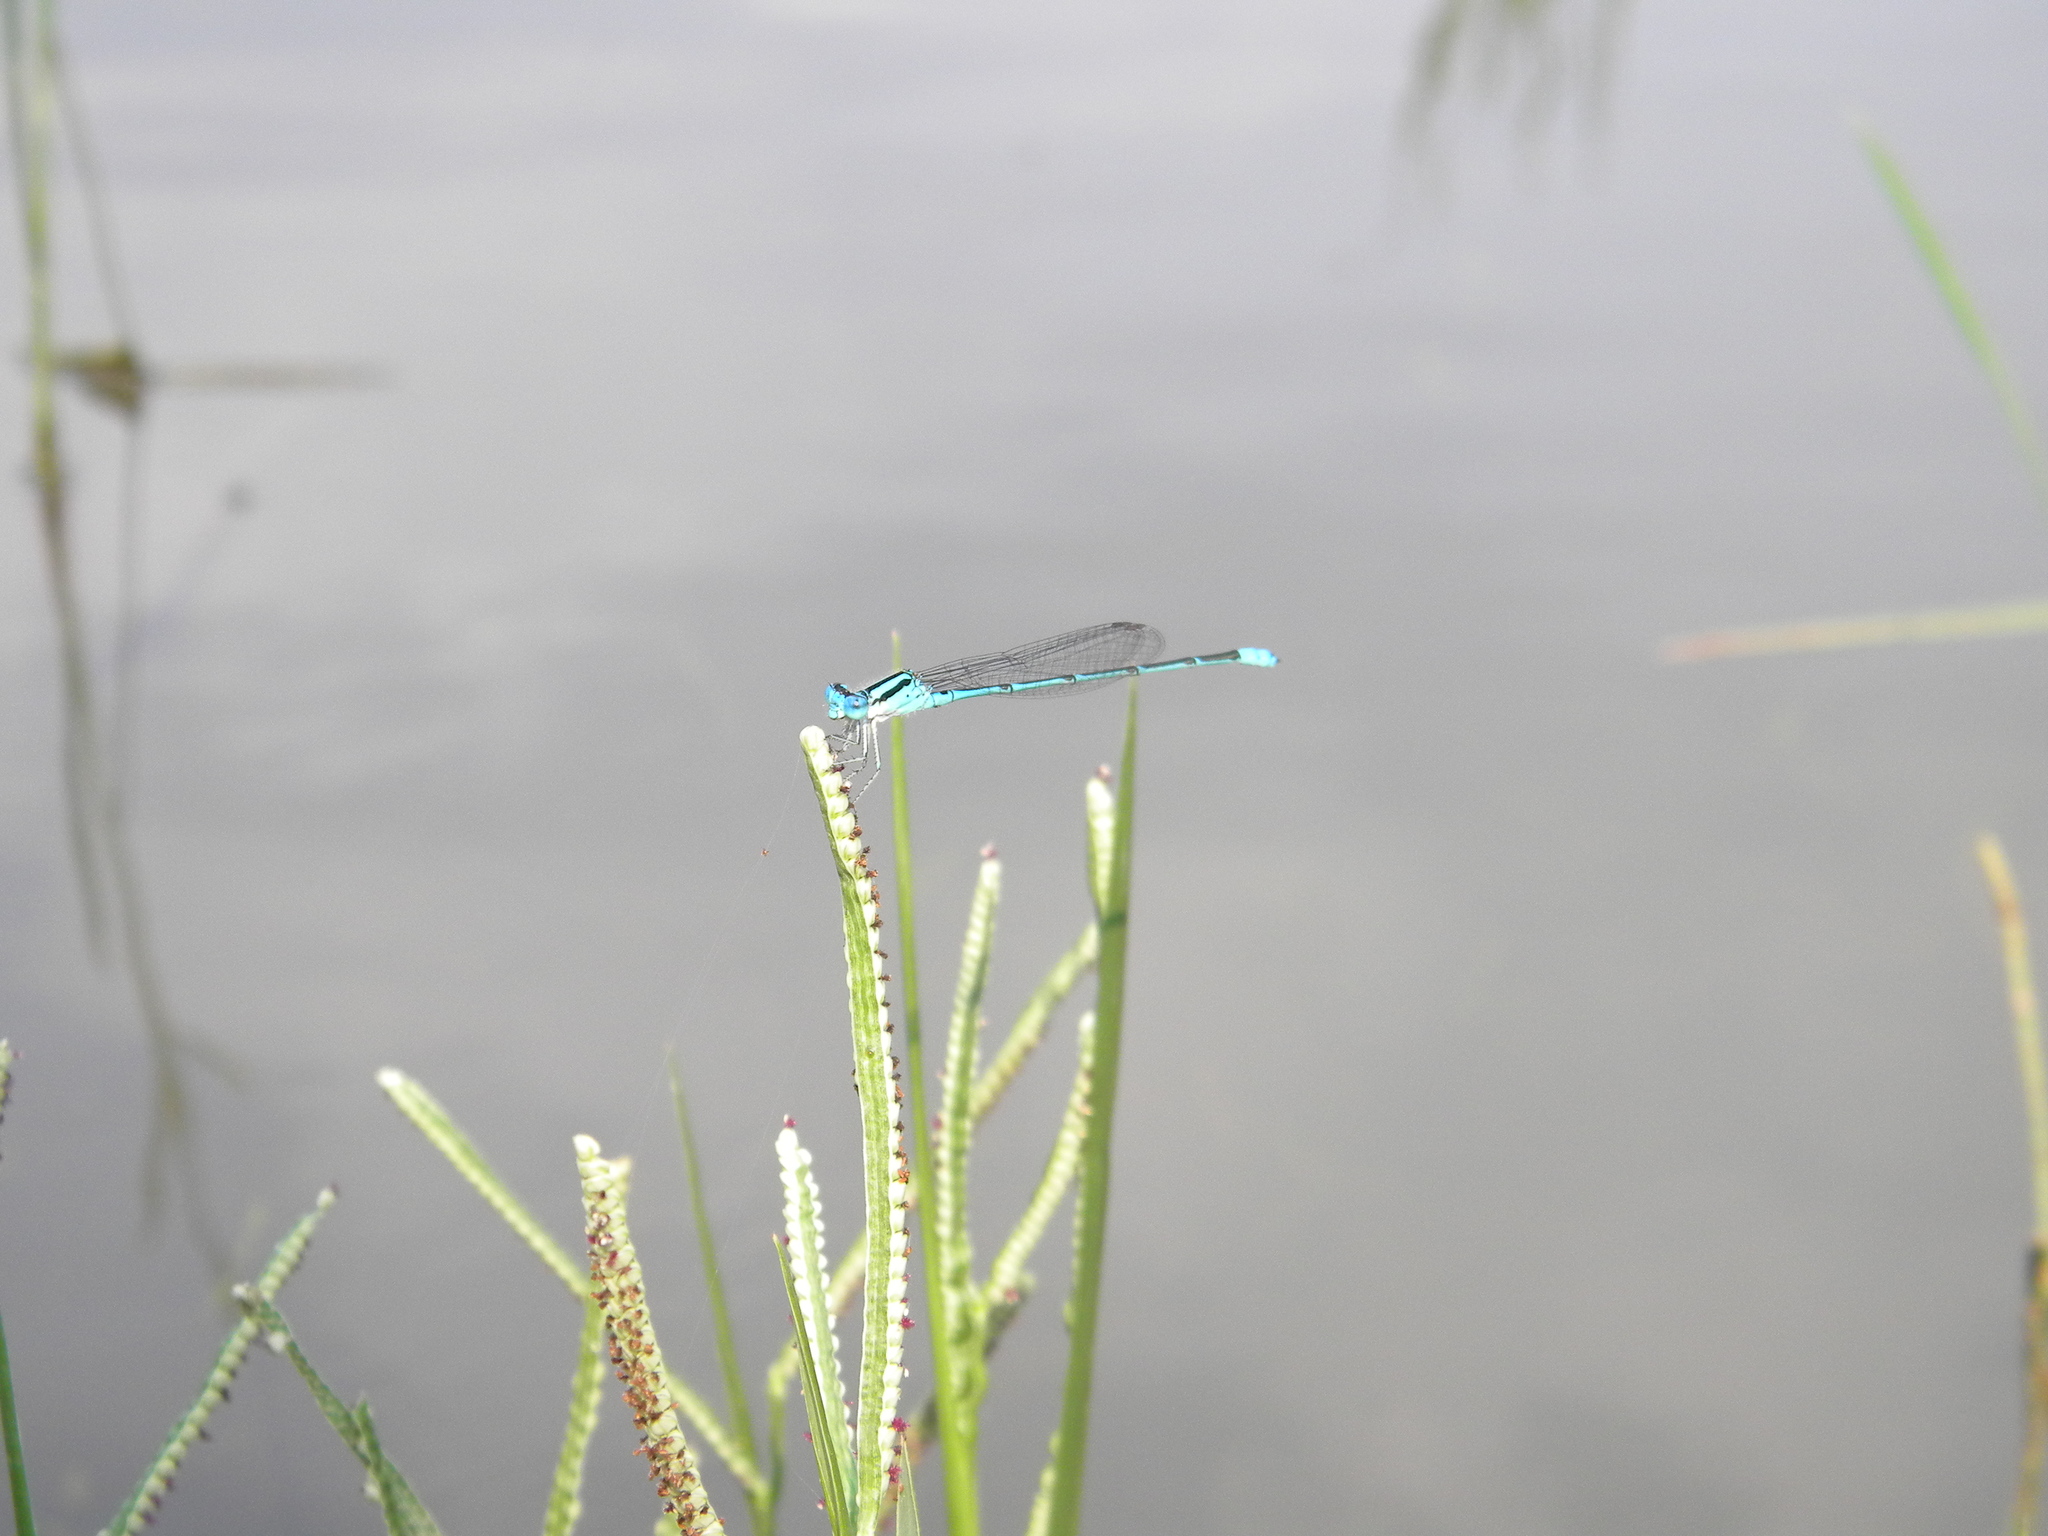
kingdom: Animalia
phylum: Arthropoda
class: Insecta
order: Odonata
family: Coenagrionidae
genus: Pseudagrion
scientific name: Pseudagrion microcephalum
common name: Blue riverdamsel
